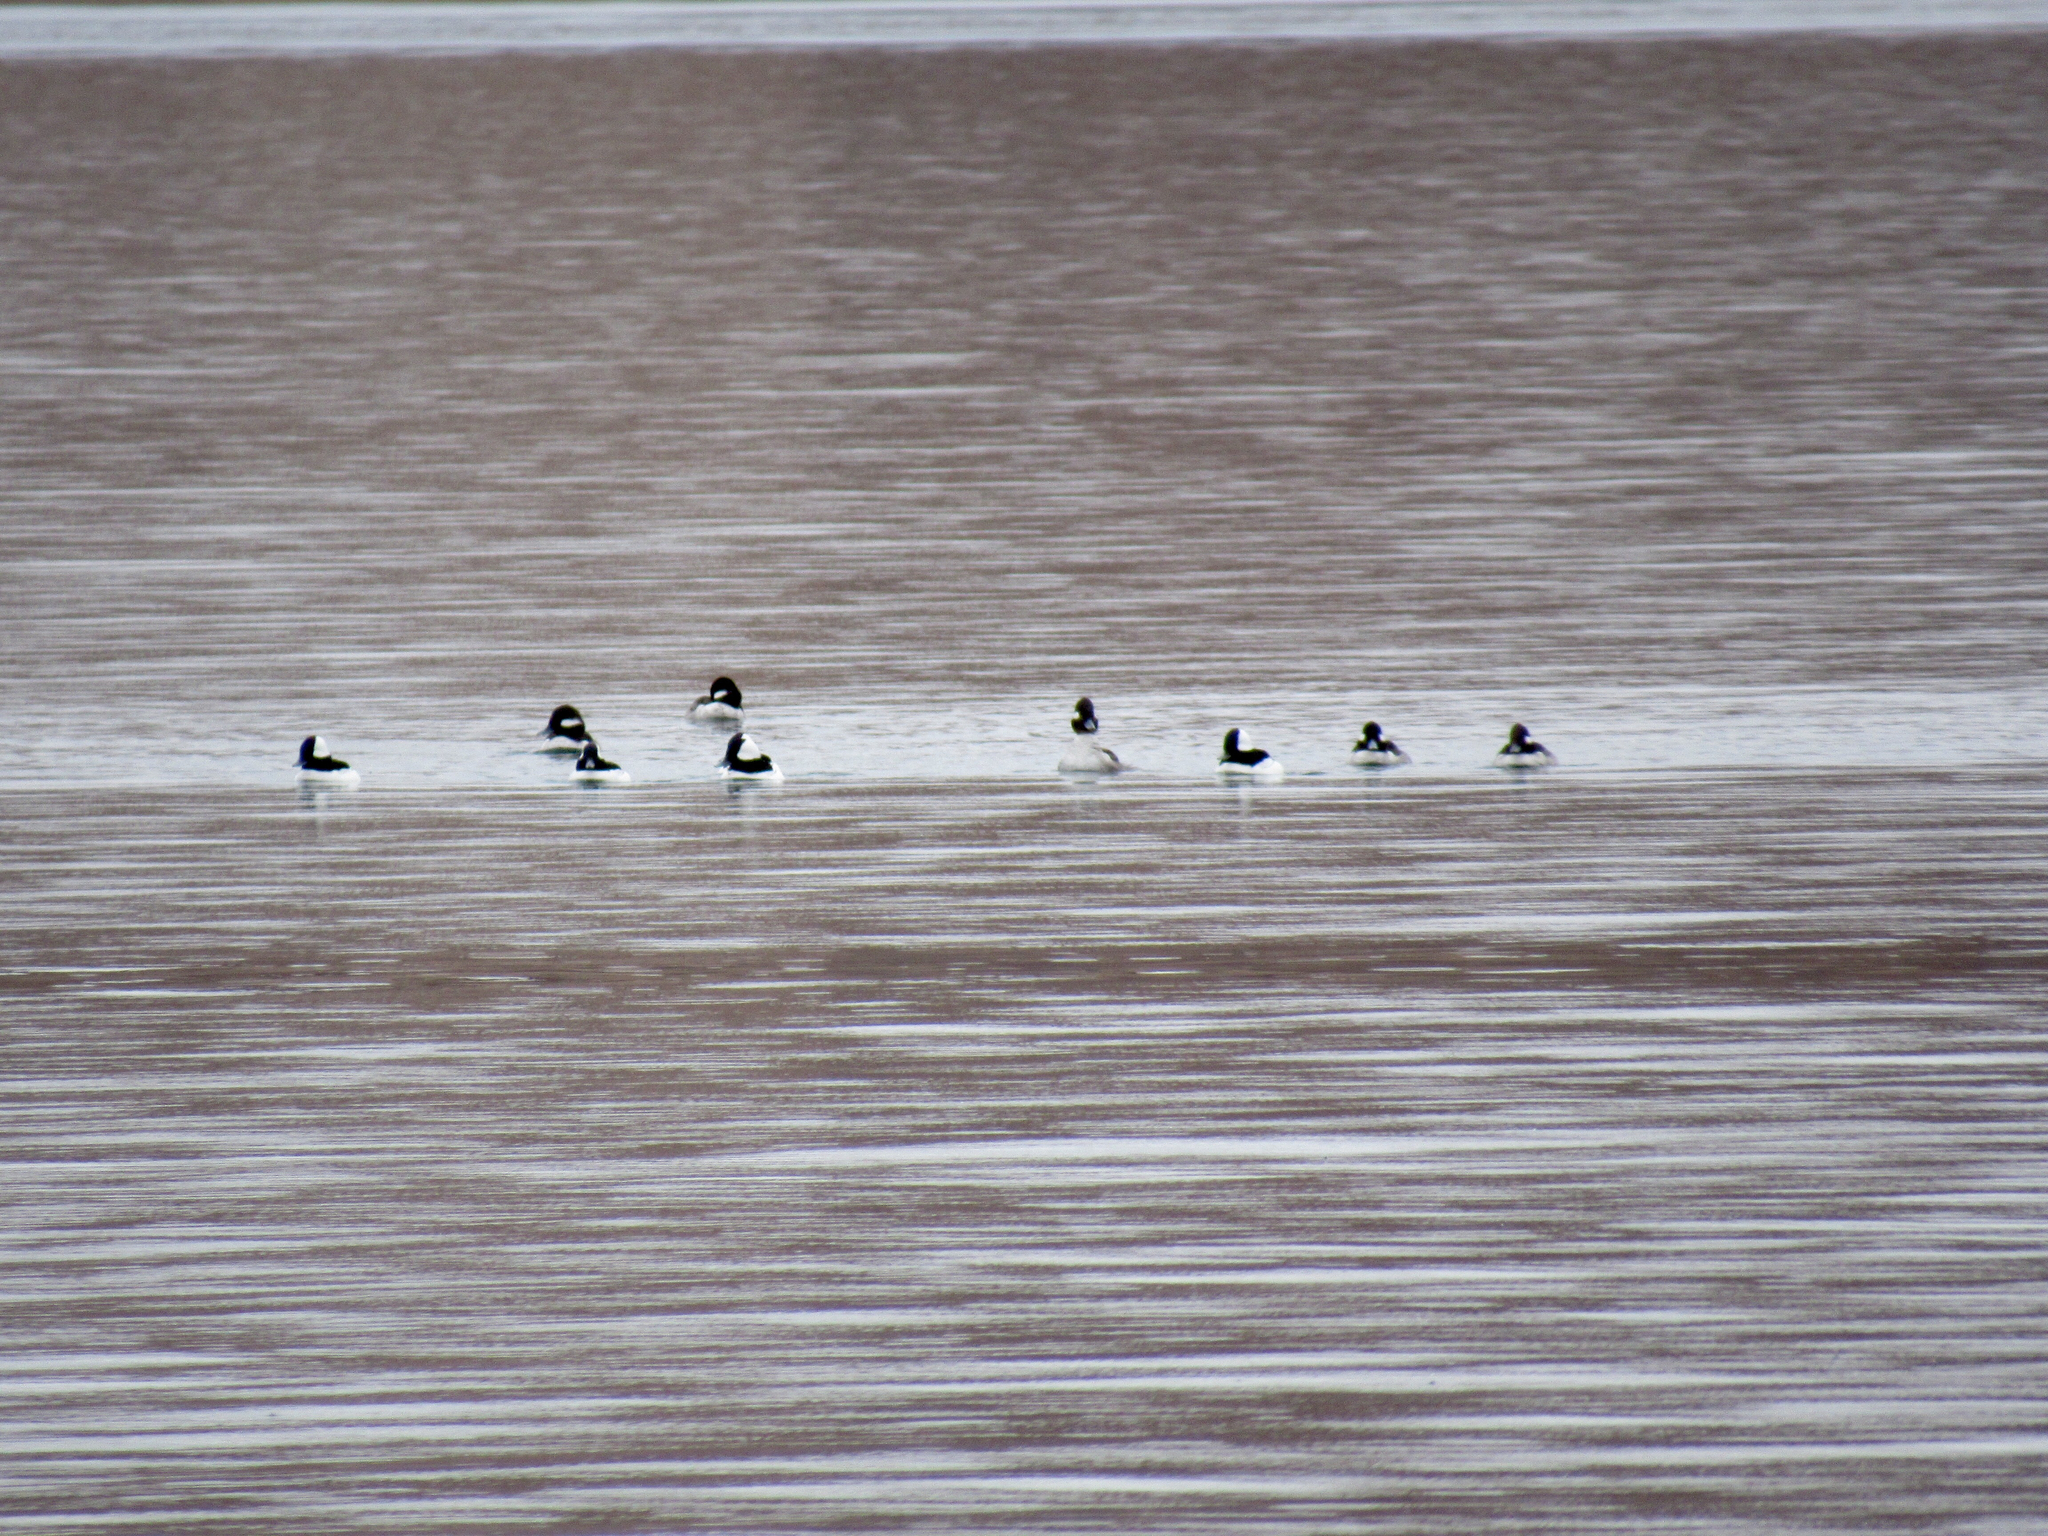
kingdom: Animalia
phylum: Chordata
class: Aves
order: Anseriformes
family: Anatidae
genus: Bucephala
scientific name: Bucephala albeola
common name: Bufflehead
